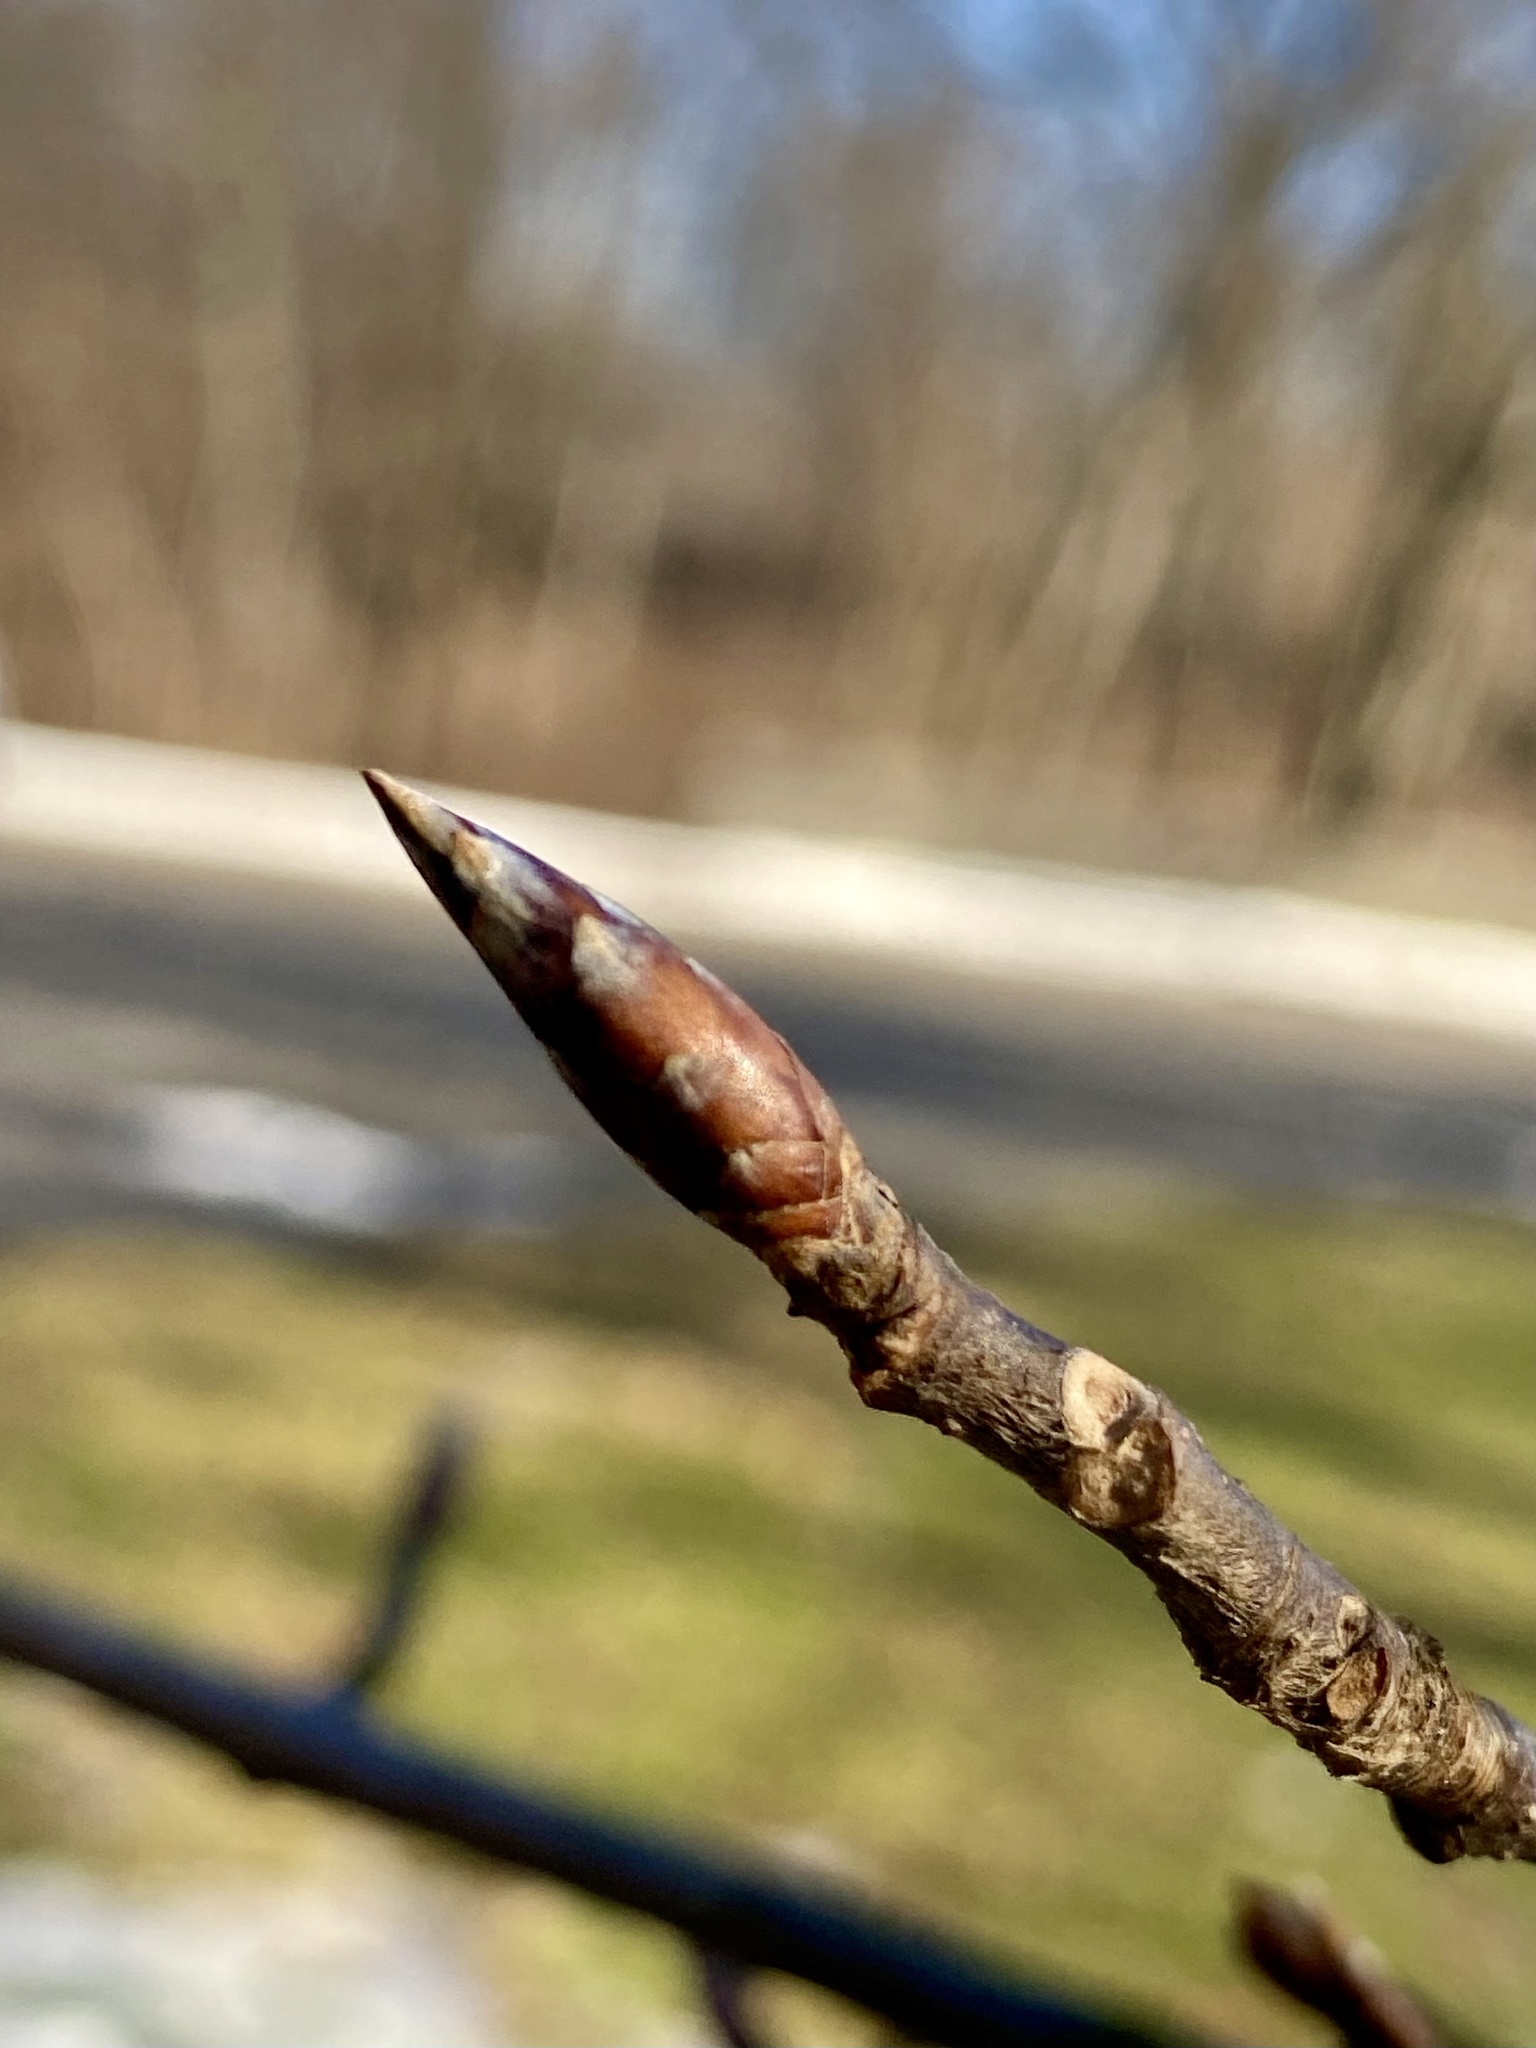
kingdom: Plantae
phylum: Tracheophyta
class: Magnoliopsida
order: Fagales
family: Fagaceae
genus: Fagus
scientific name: Fagus grandifolia
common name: American beech
